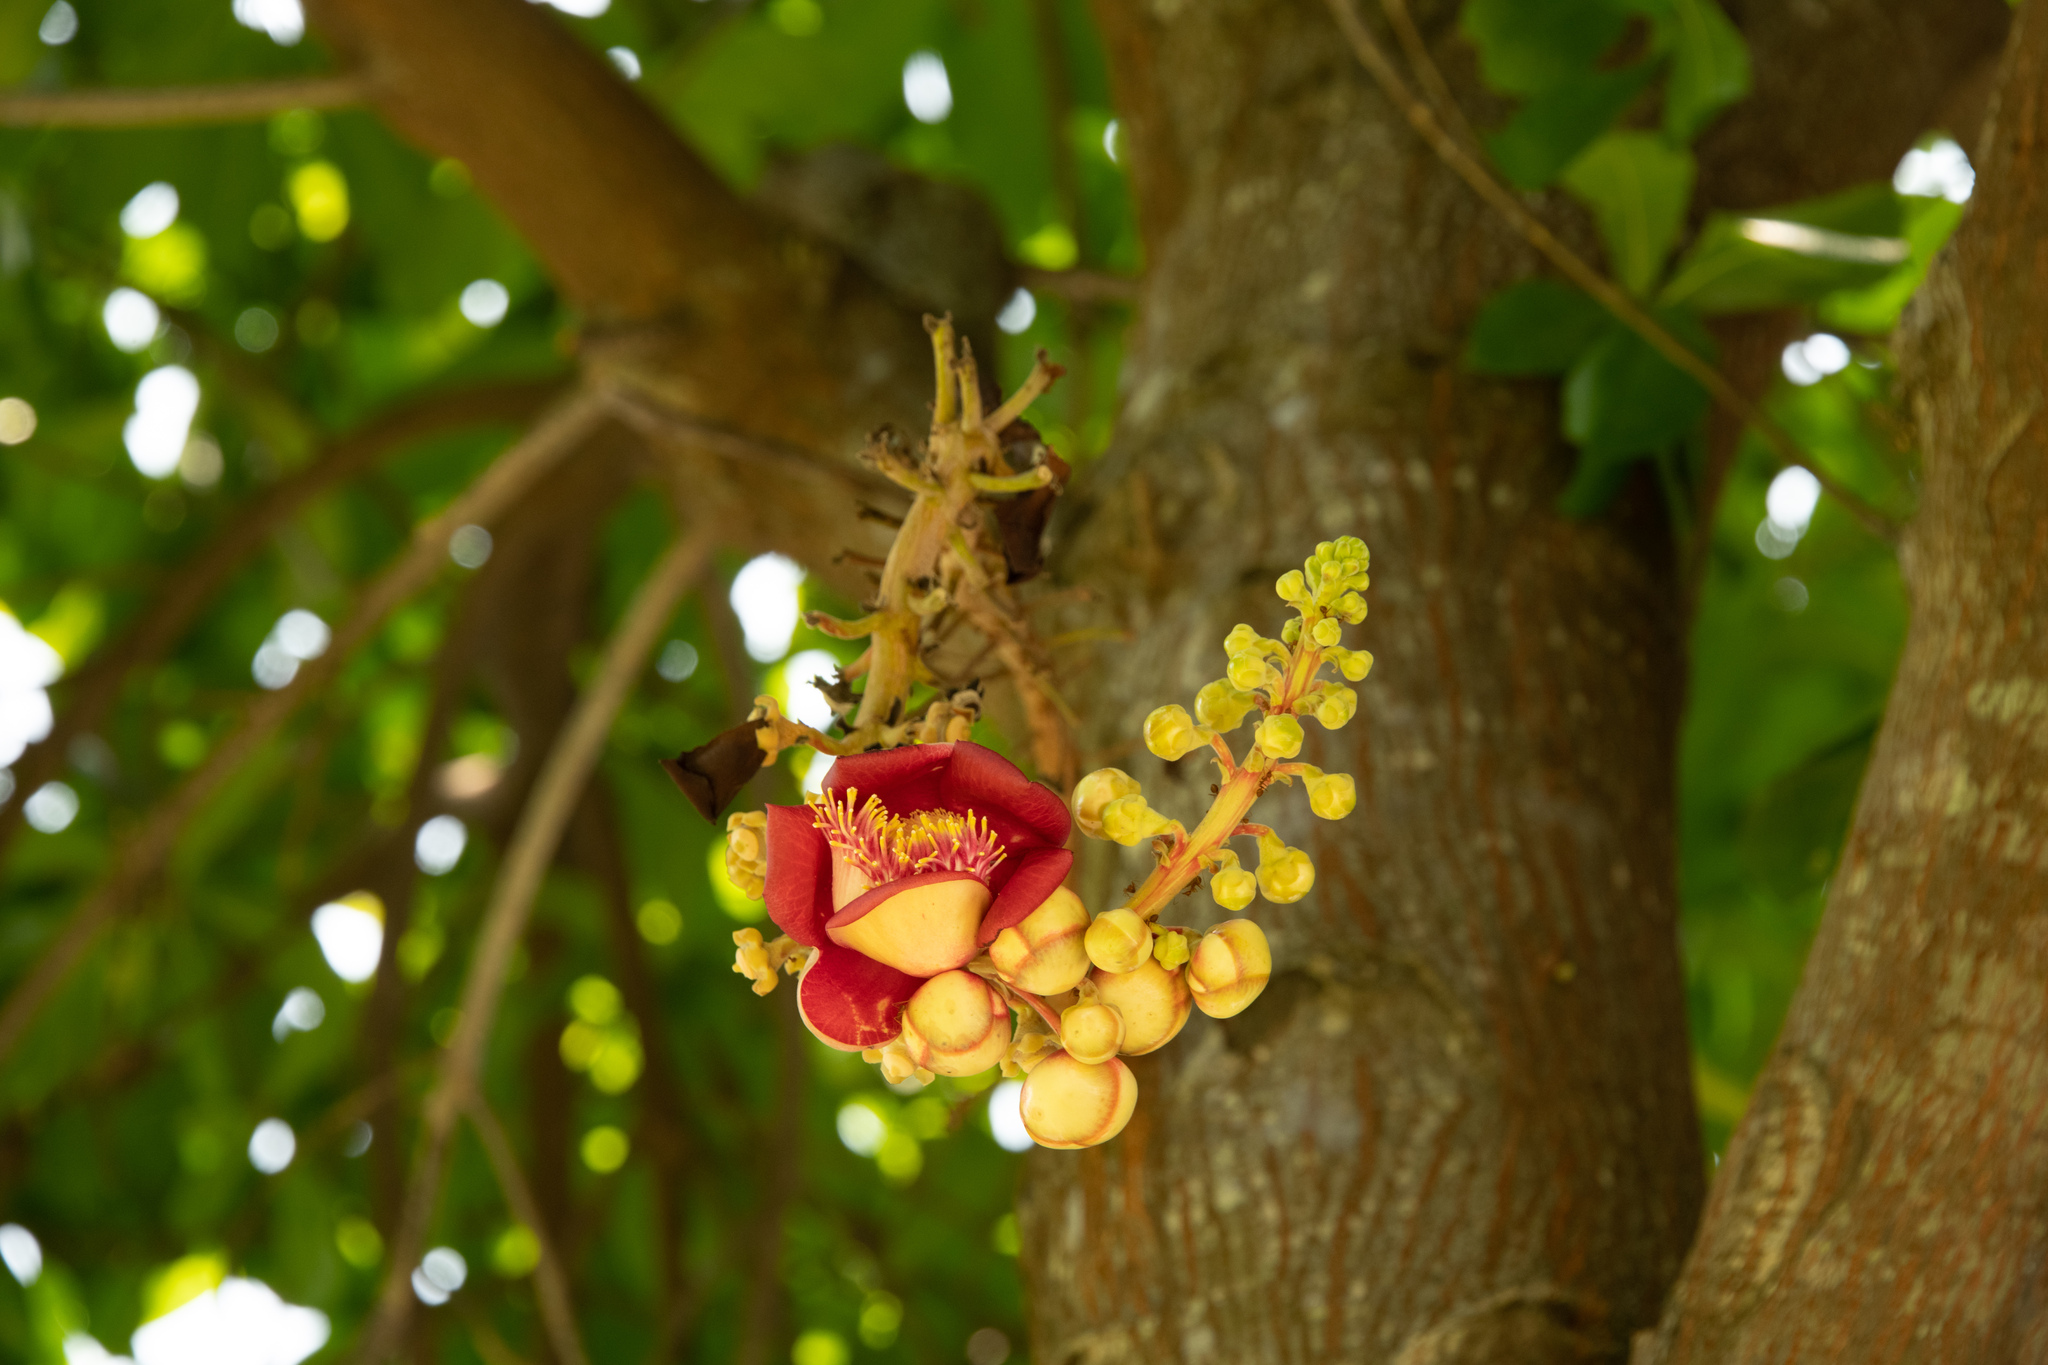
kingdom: Plantae
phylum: Tracheophyta
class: Magnoliopsida
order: Ericales
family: Lecythidaceae
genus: Couroupita
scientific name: Couroupita guianensis
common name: Cannonball tree
